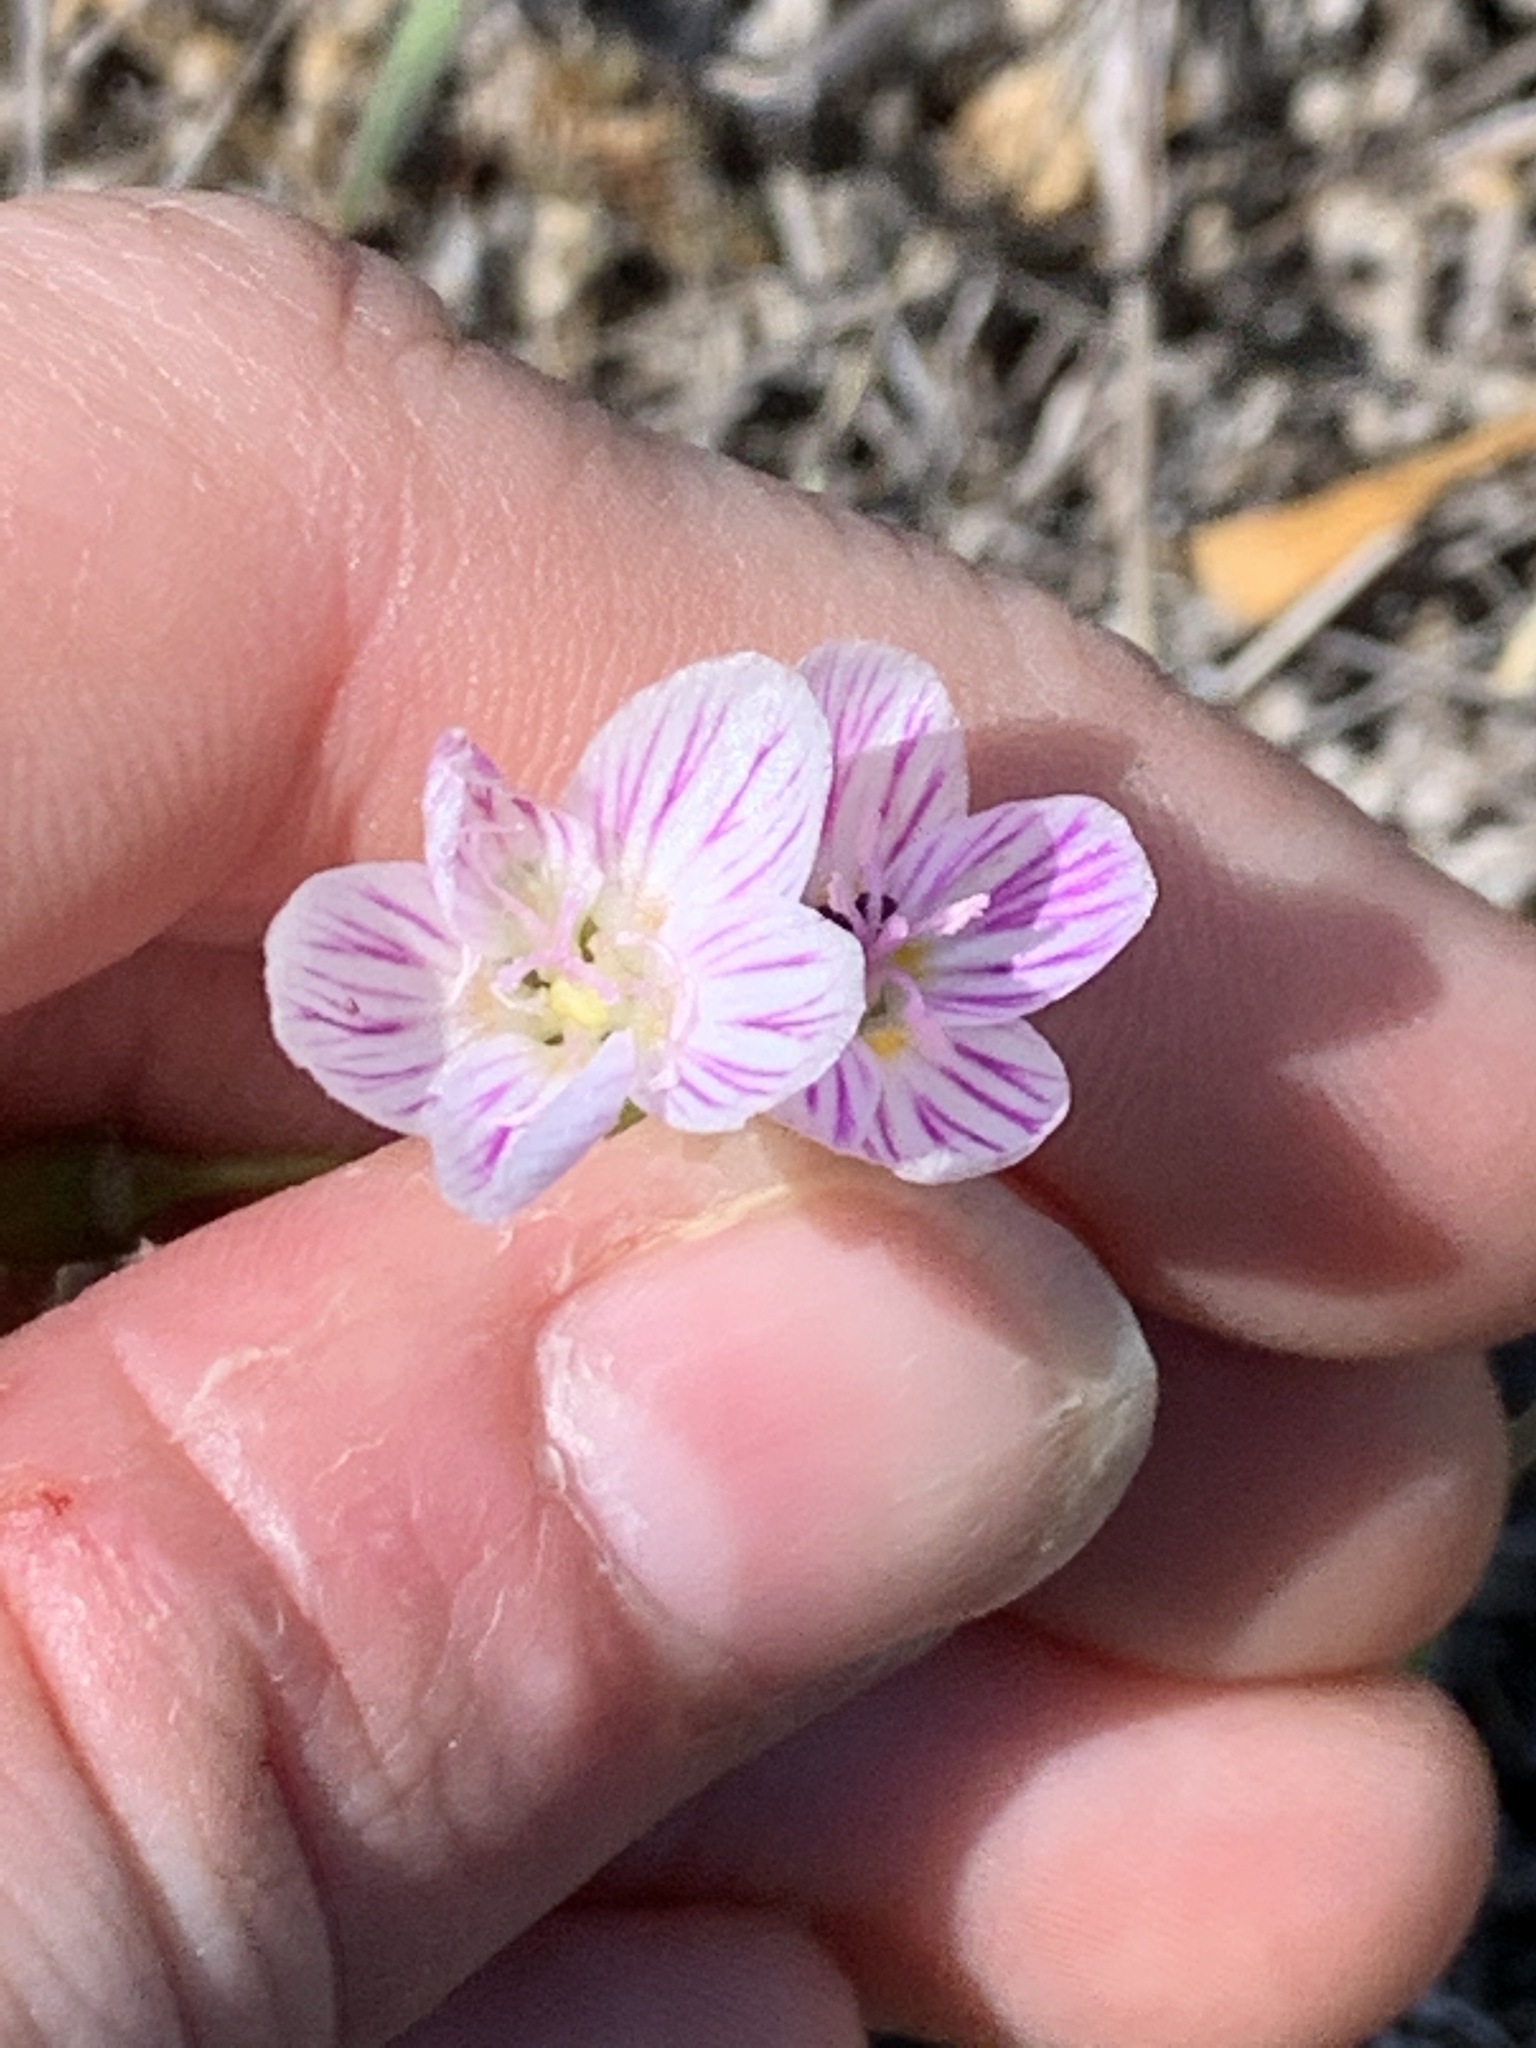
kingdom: Plantae
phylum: Tracheophyta
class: Magnoliopsida
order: Caryophyllales
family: Montiaceae
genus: Claytonia
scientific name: Claytonia virginica
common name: Virginia springbeauty
